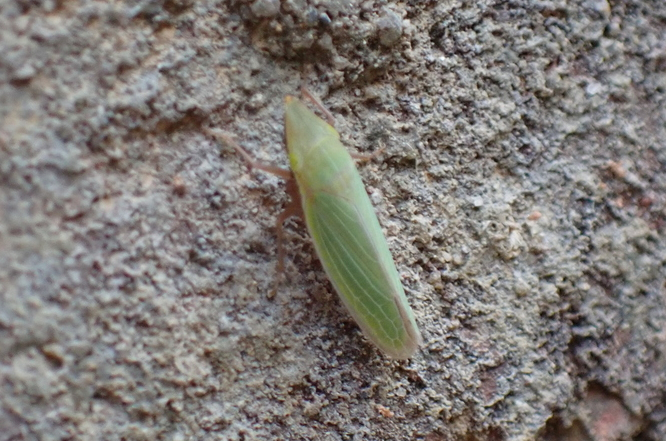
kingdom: Animalia
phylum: Arthropoda
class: Insecta
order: Hemiptera
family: Cicadellidae
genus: Draeculacephala
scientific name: Draeculacephala antica
